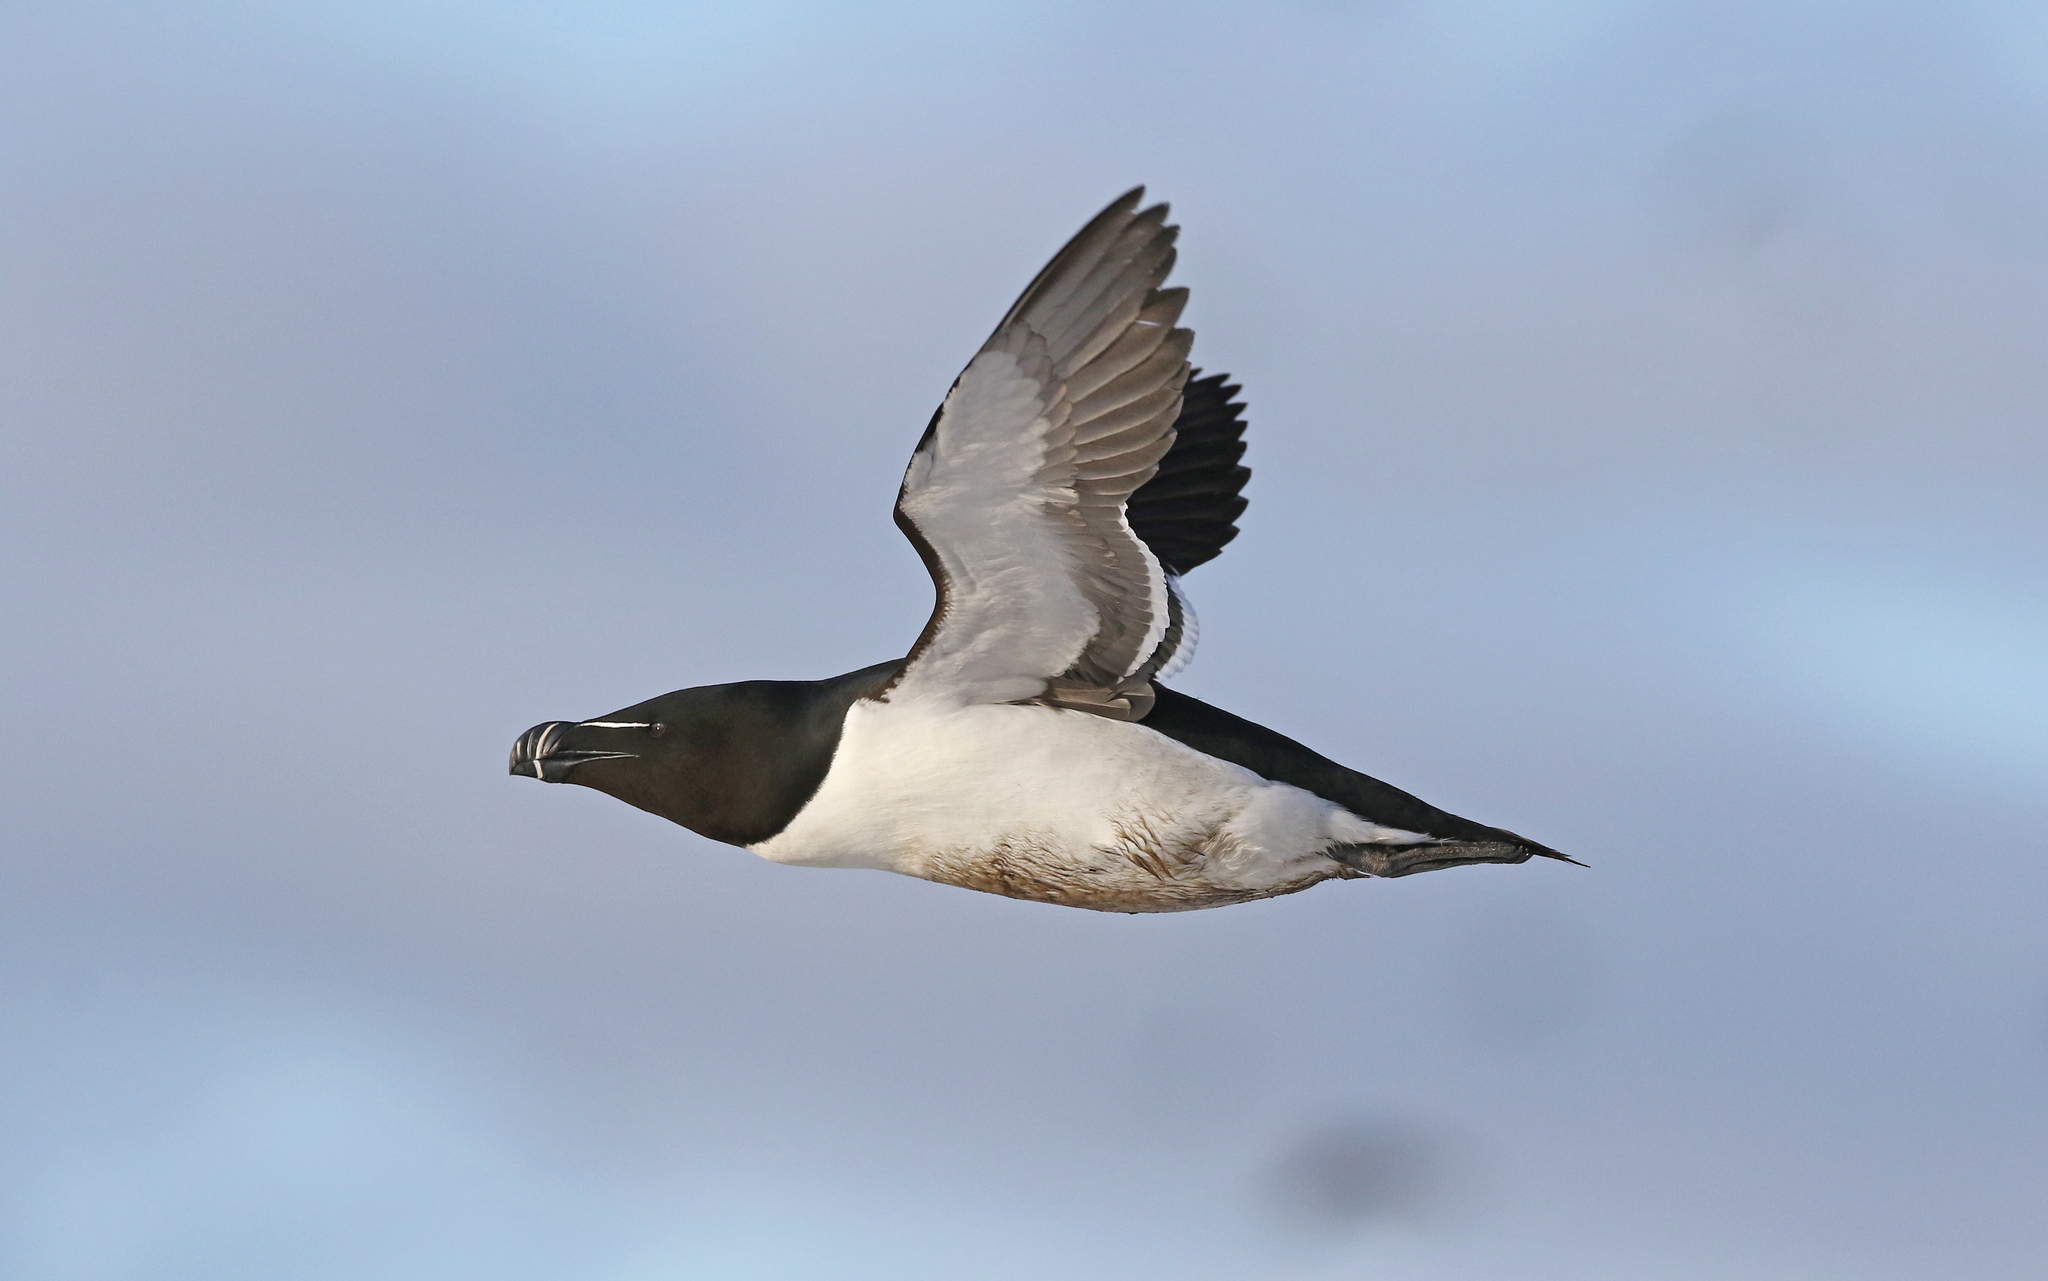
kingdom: Animalia
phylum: Chordata
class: Aves
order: Charadriiformes
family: Alcidae
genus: Alca
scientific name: Alca torda
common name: Razorbill
